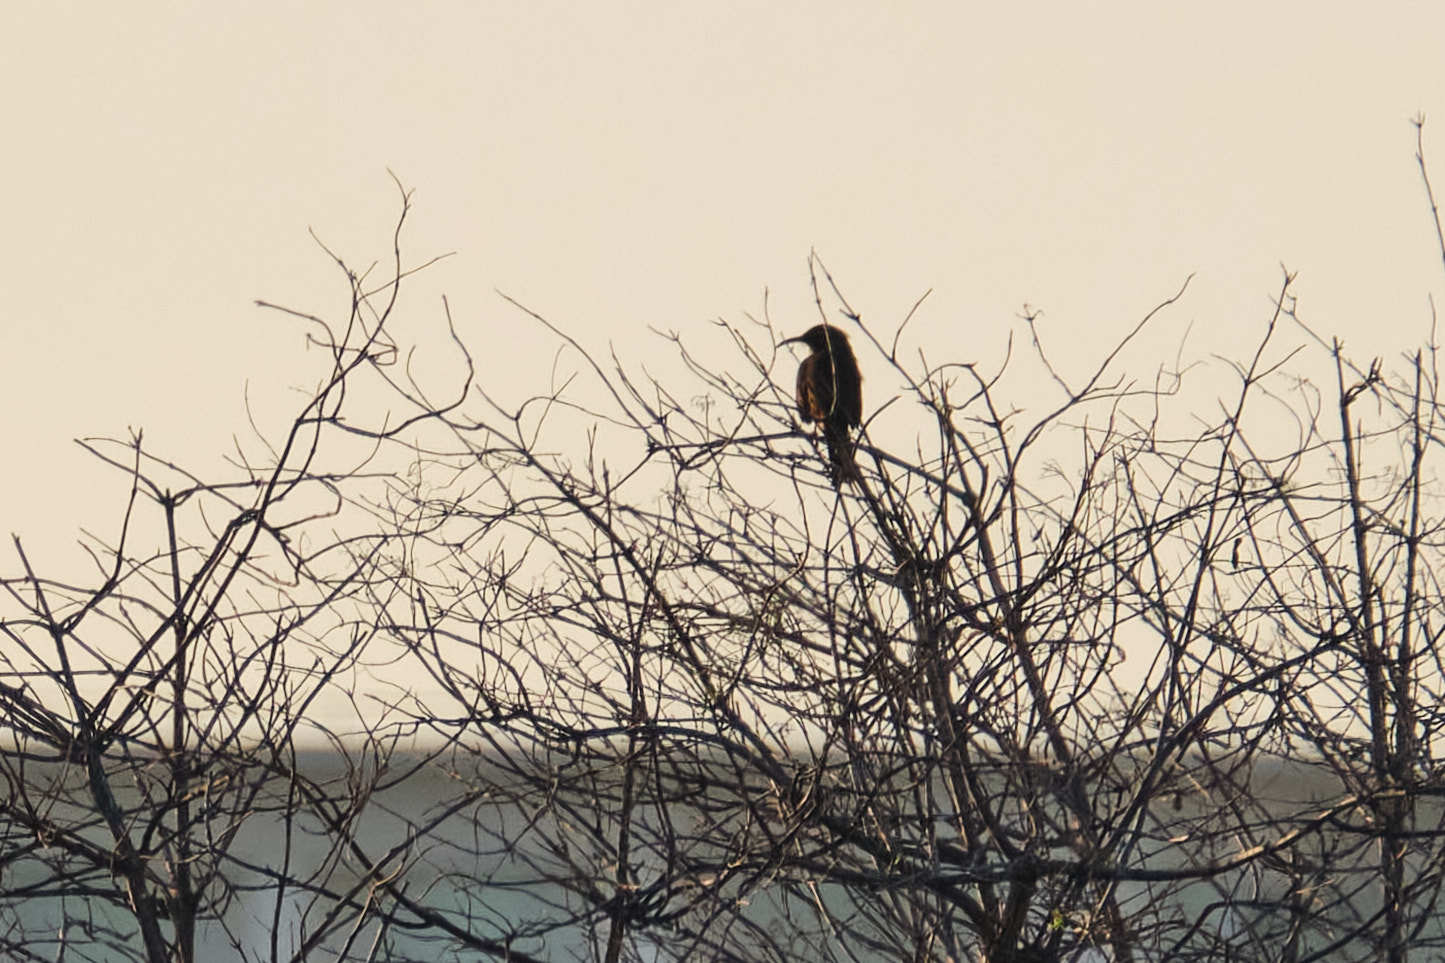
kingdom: Animalia
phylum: Chordata
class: Aves
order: Passeriformes
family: Mimidae
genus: Toxostoma
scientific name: Toxostoma redivivum
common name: California thrasher
